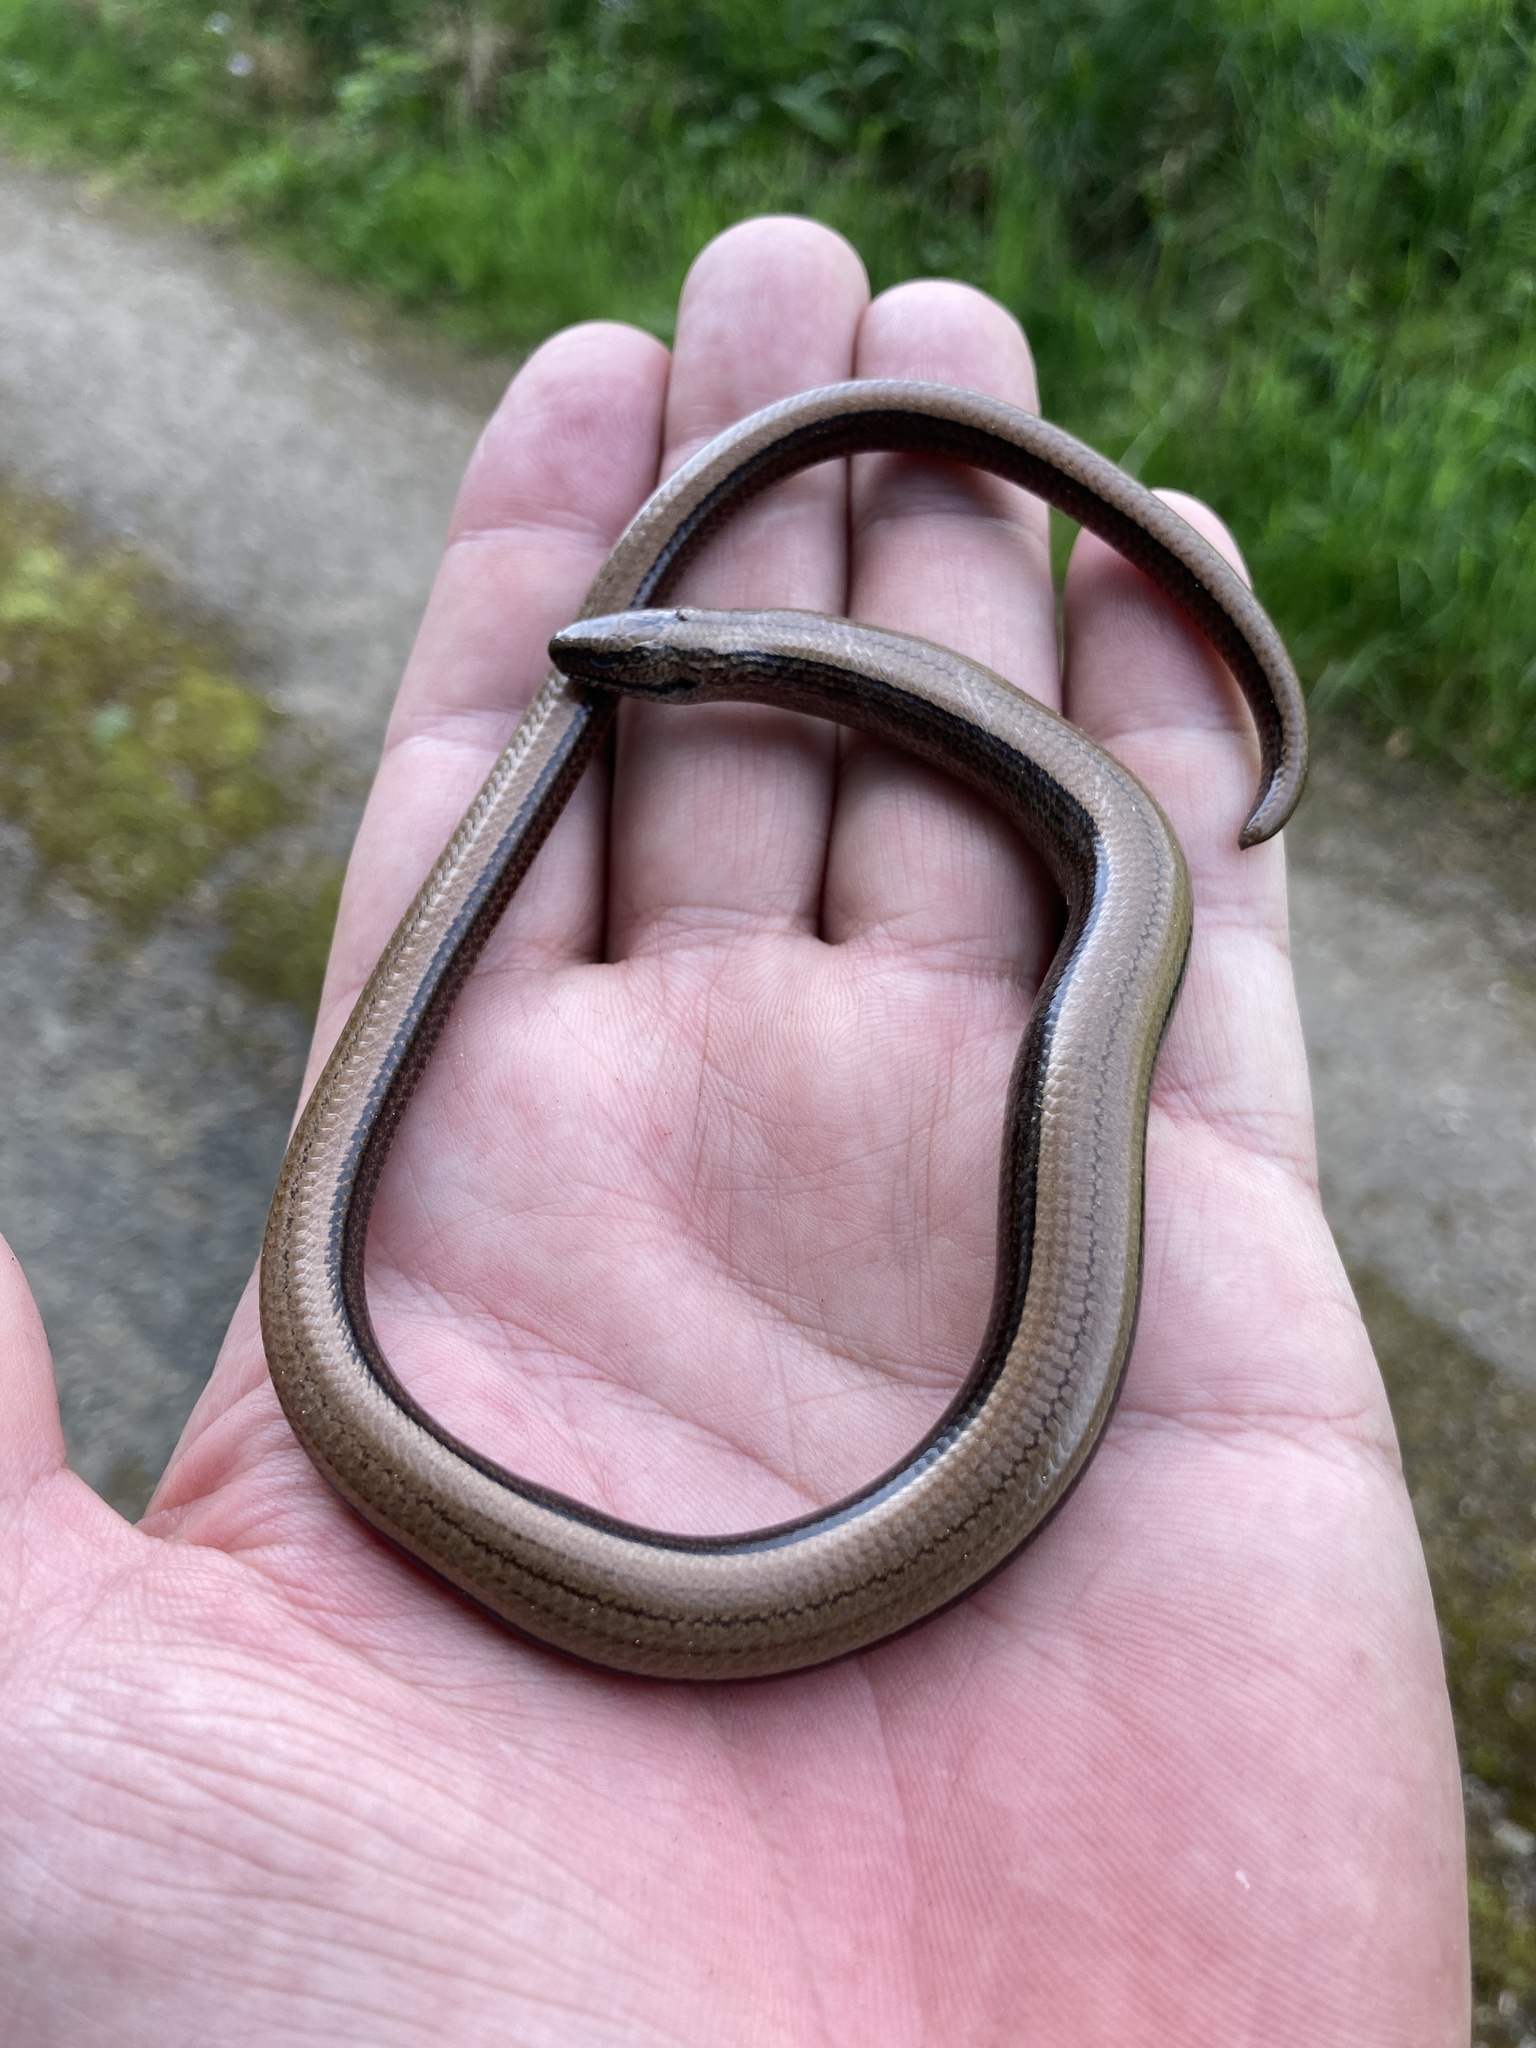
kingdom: Animalia
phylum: Chordata
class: Squamata
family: Anguidae
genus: Anguis
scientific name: Anguis fragilis
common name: Slow worm
